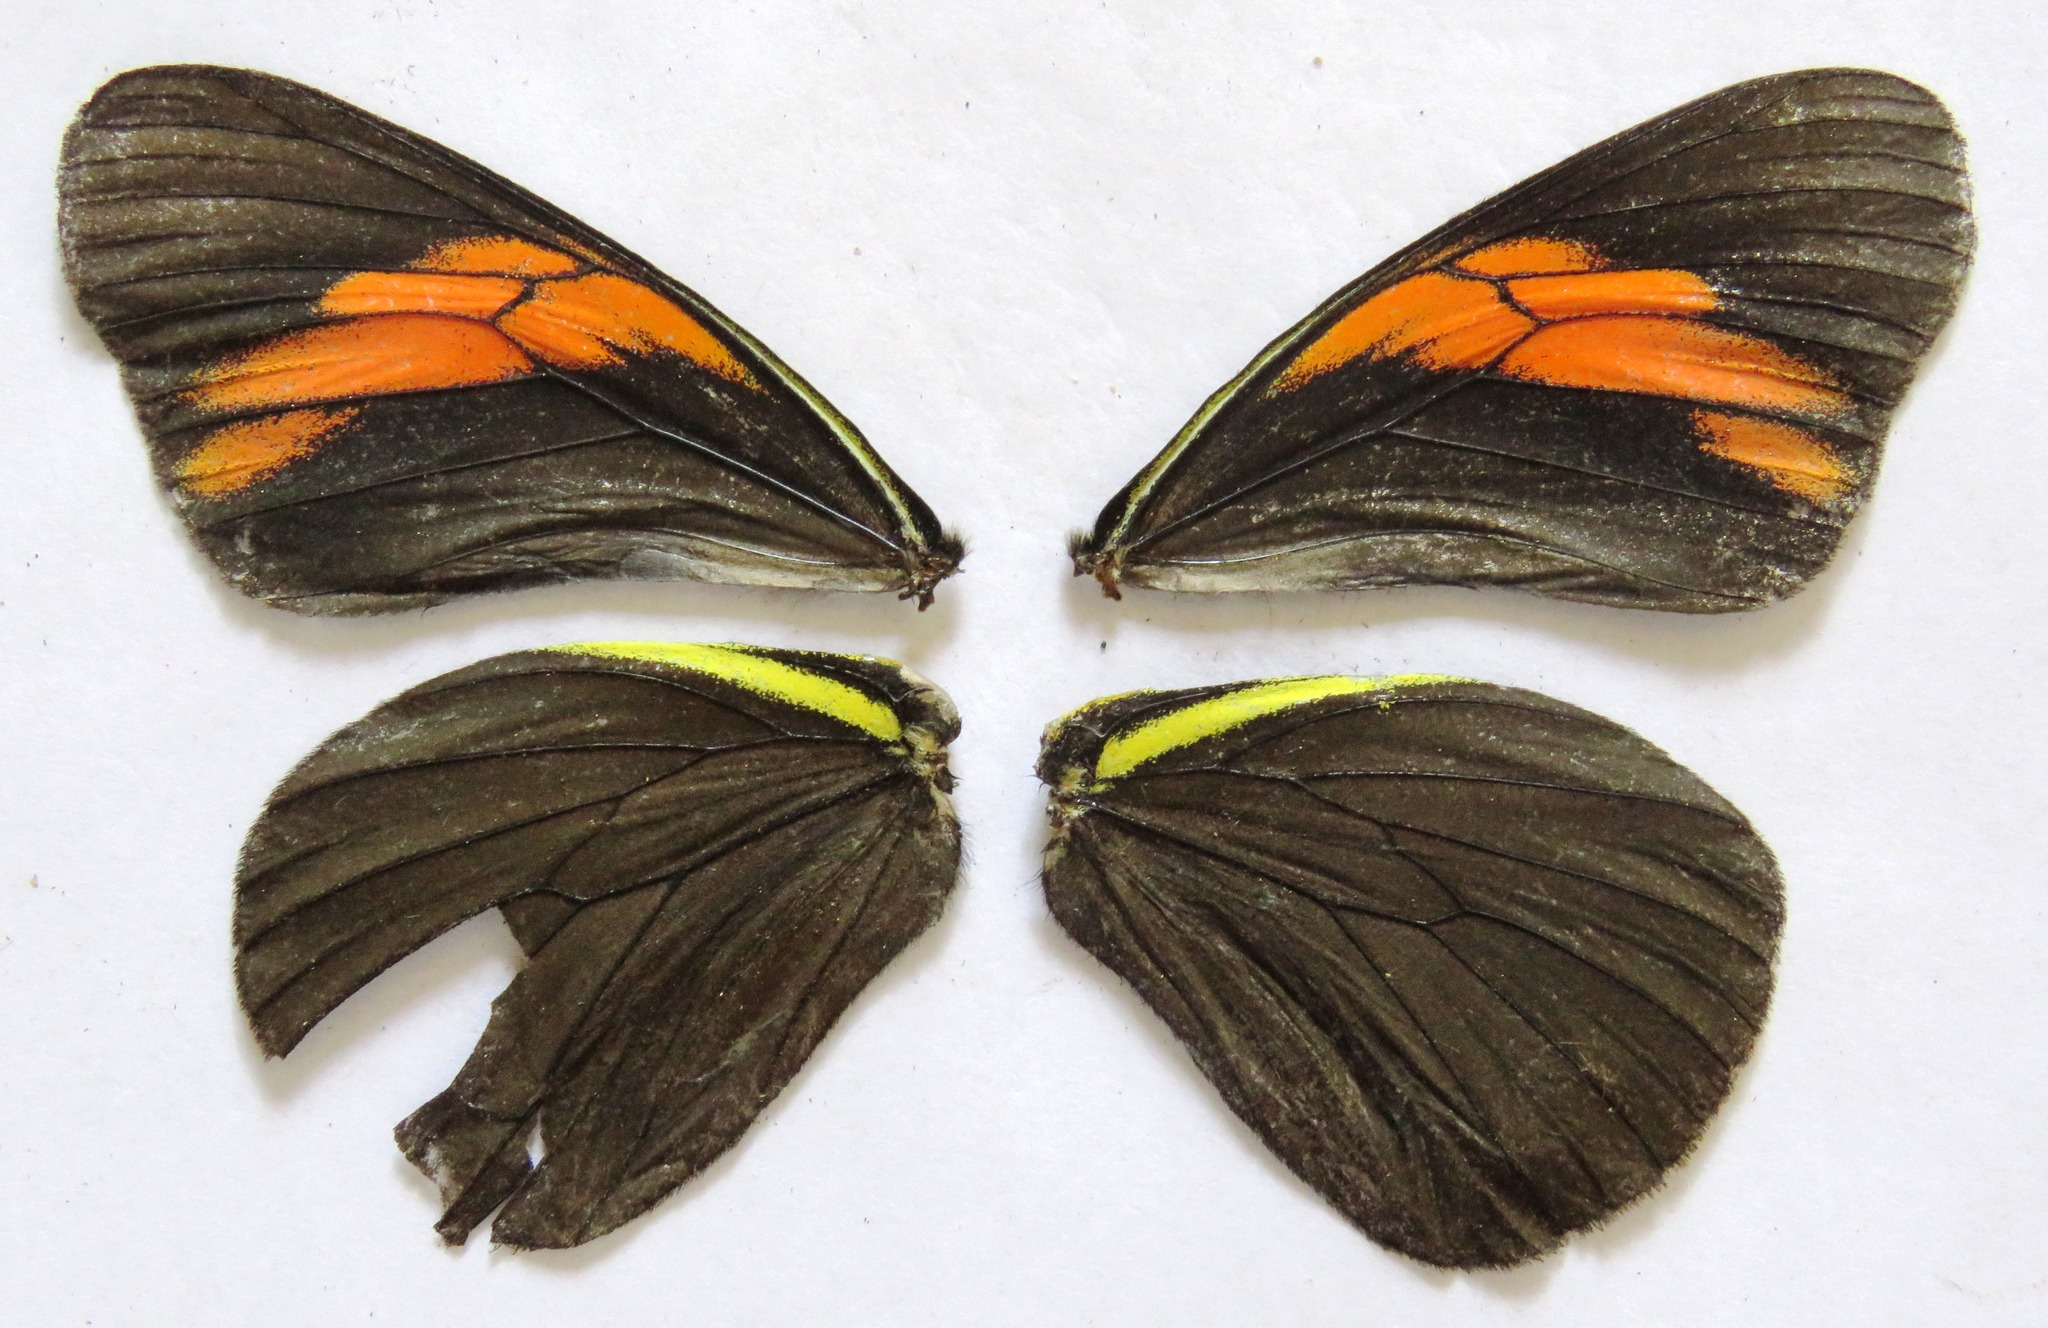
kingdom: Animalia
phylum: Arthropoda
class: Insecta
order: Lepidoptera
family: Pieridae
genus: Pereute
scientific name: Pereute charops
